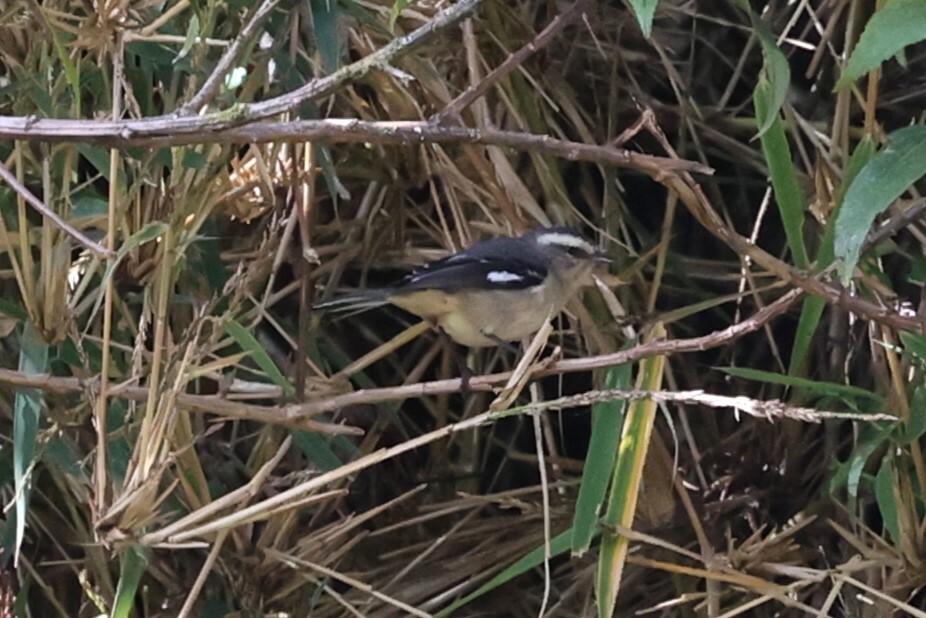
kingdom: Animalia
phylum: Chordata
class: Aves
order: Passeriformes
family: Thraupidae
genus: Conirostrum
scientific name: Conirostrum cinereum
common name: Cinereous conebill
